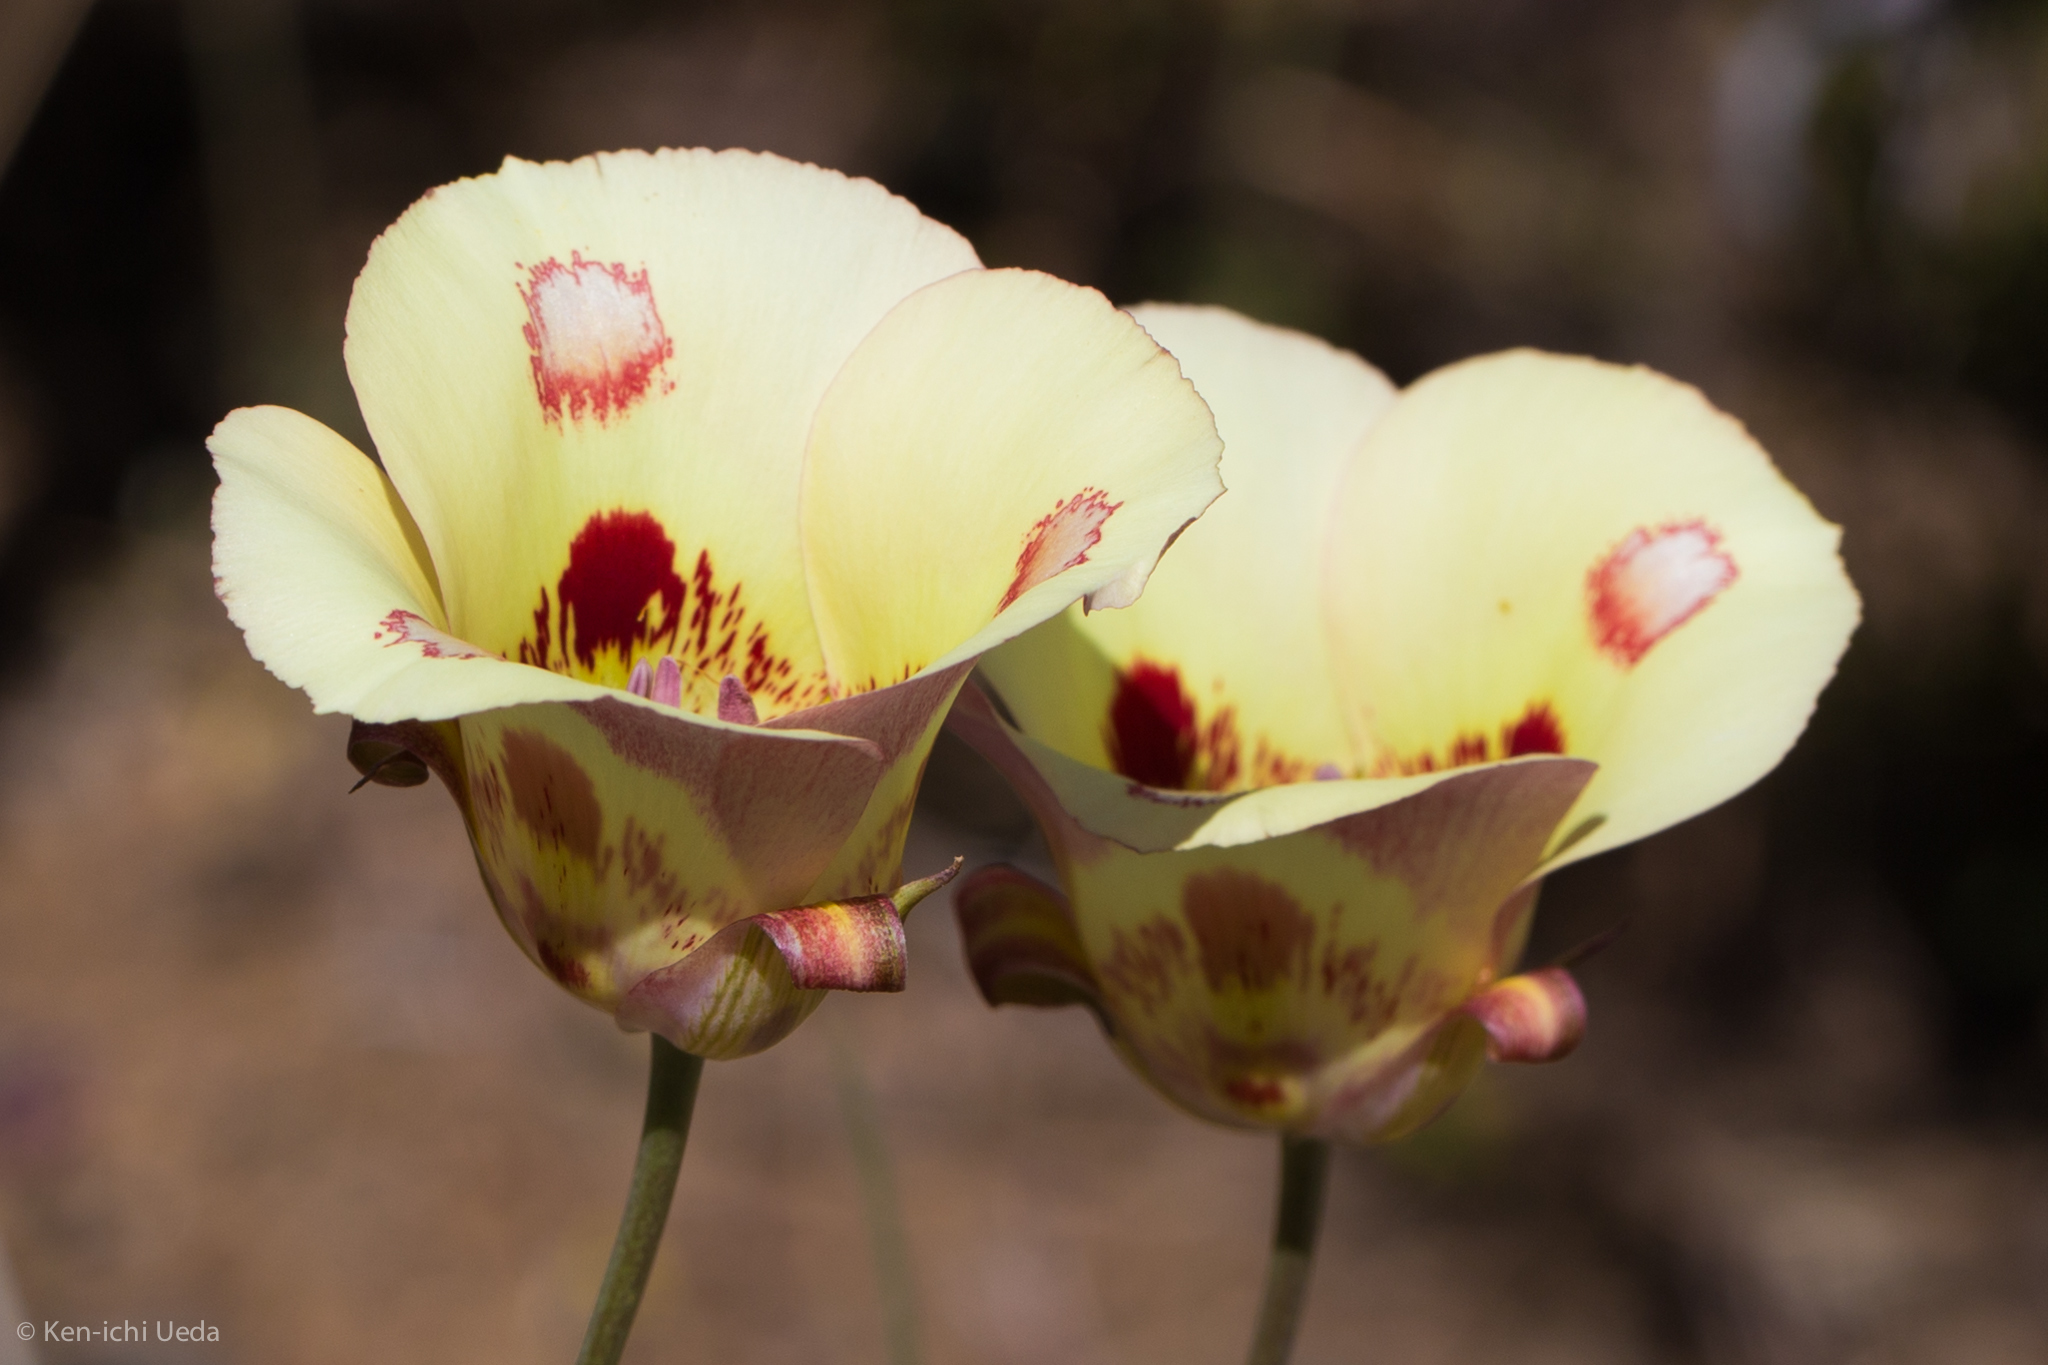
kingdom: Plantae
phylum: Tracheophyta
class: Liliopsida
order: Liliales
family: Liliaceae
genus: Calochortus
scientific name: Calochortus venustus
